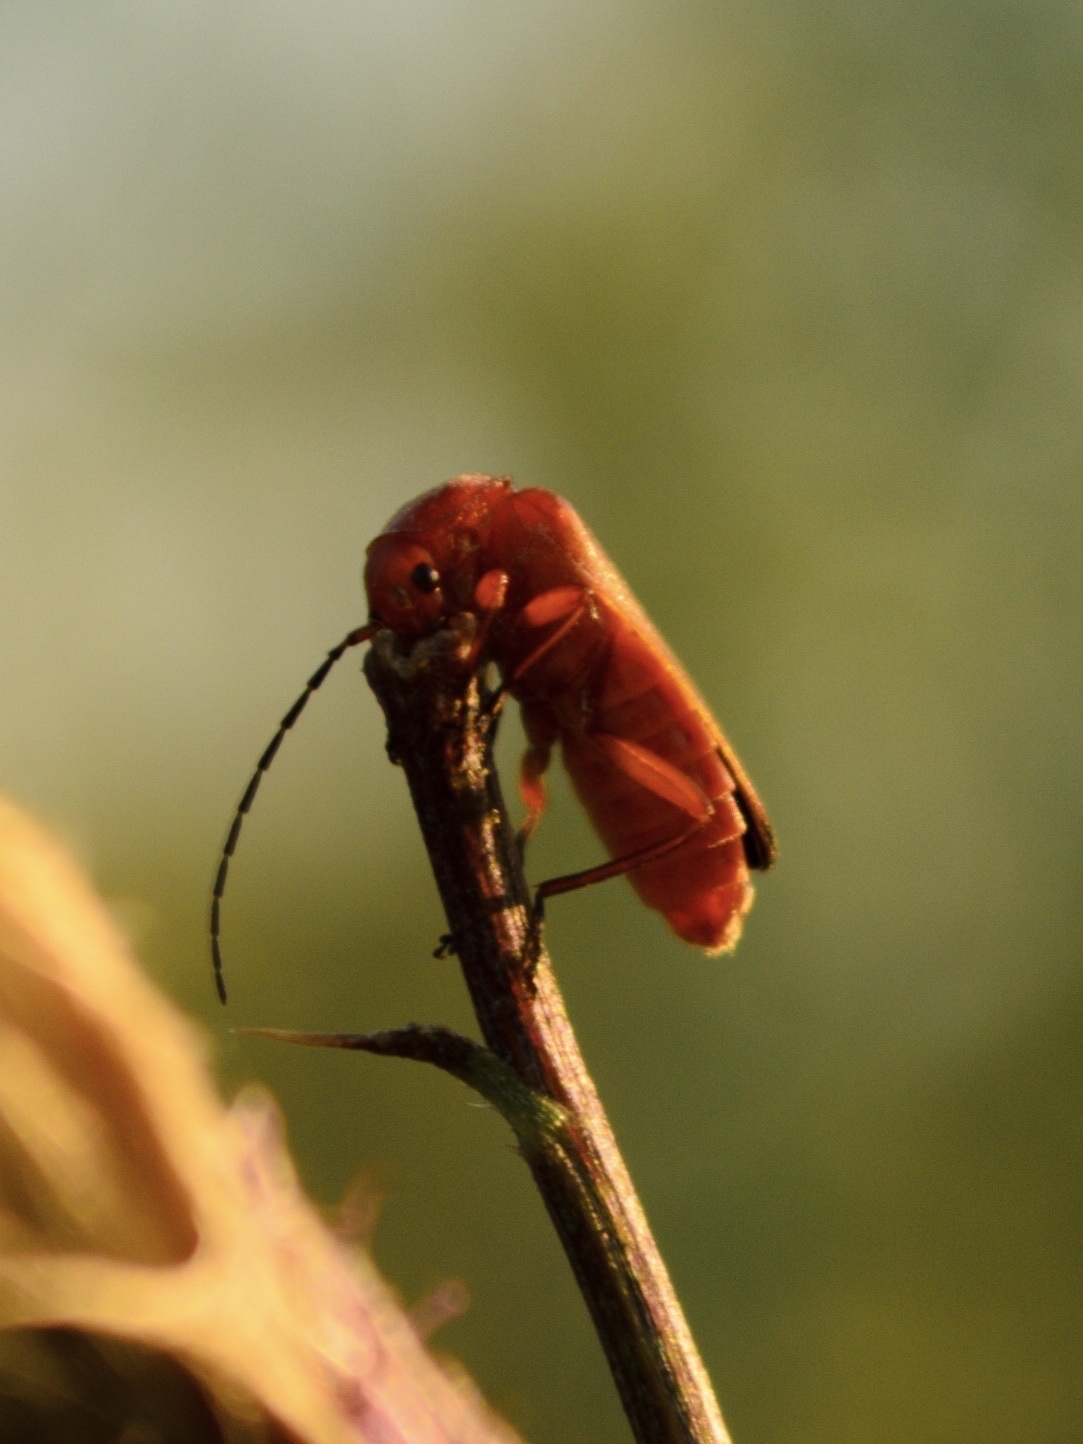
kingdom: Animalia
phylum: Arthropoda
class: Insecta
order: Coleoptera
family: Cantharidae
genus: Rhagonycha
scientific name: Rhagonycha fulva
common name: Common red soldier beetle
